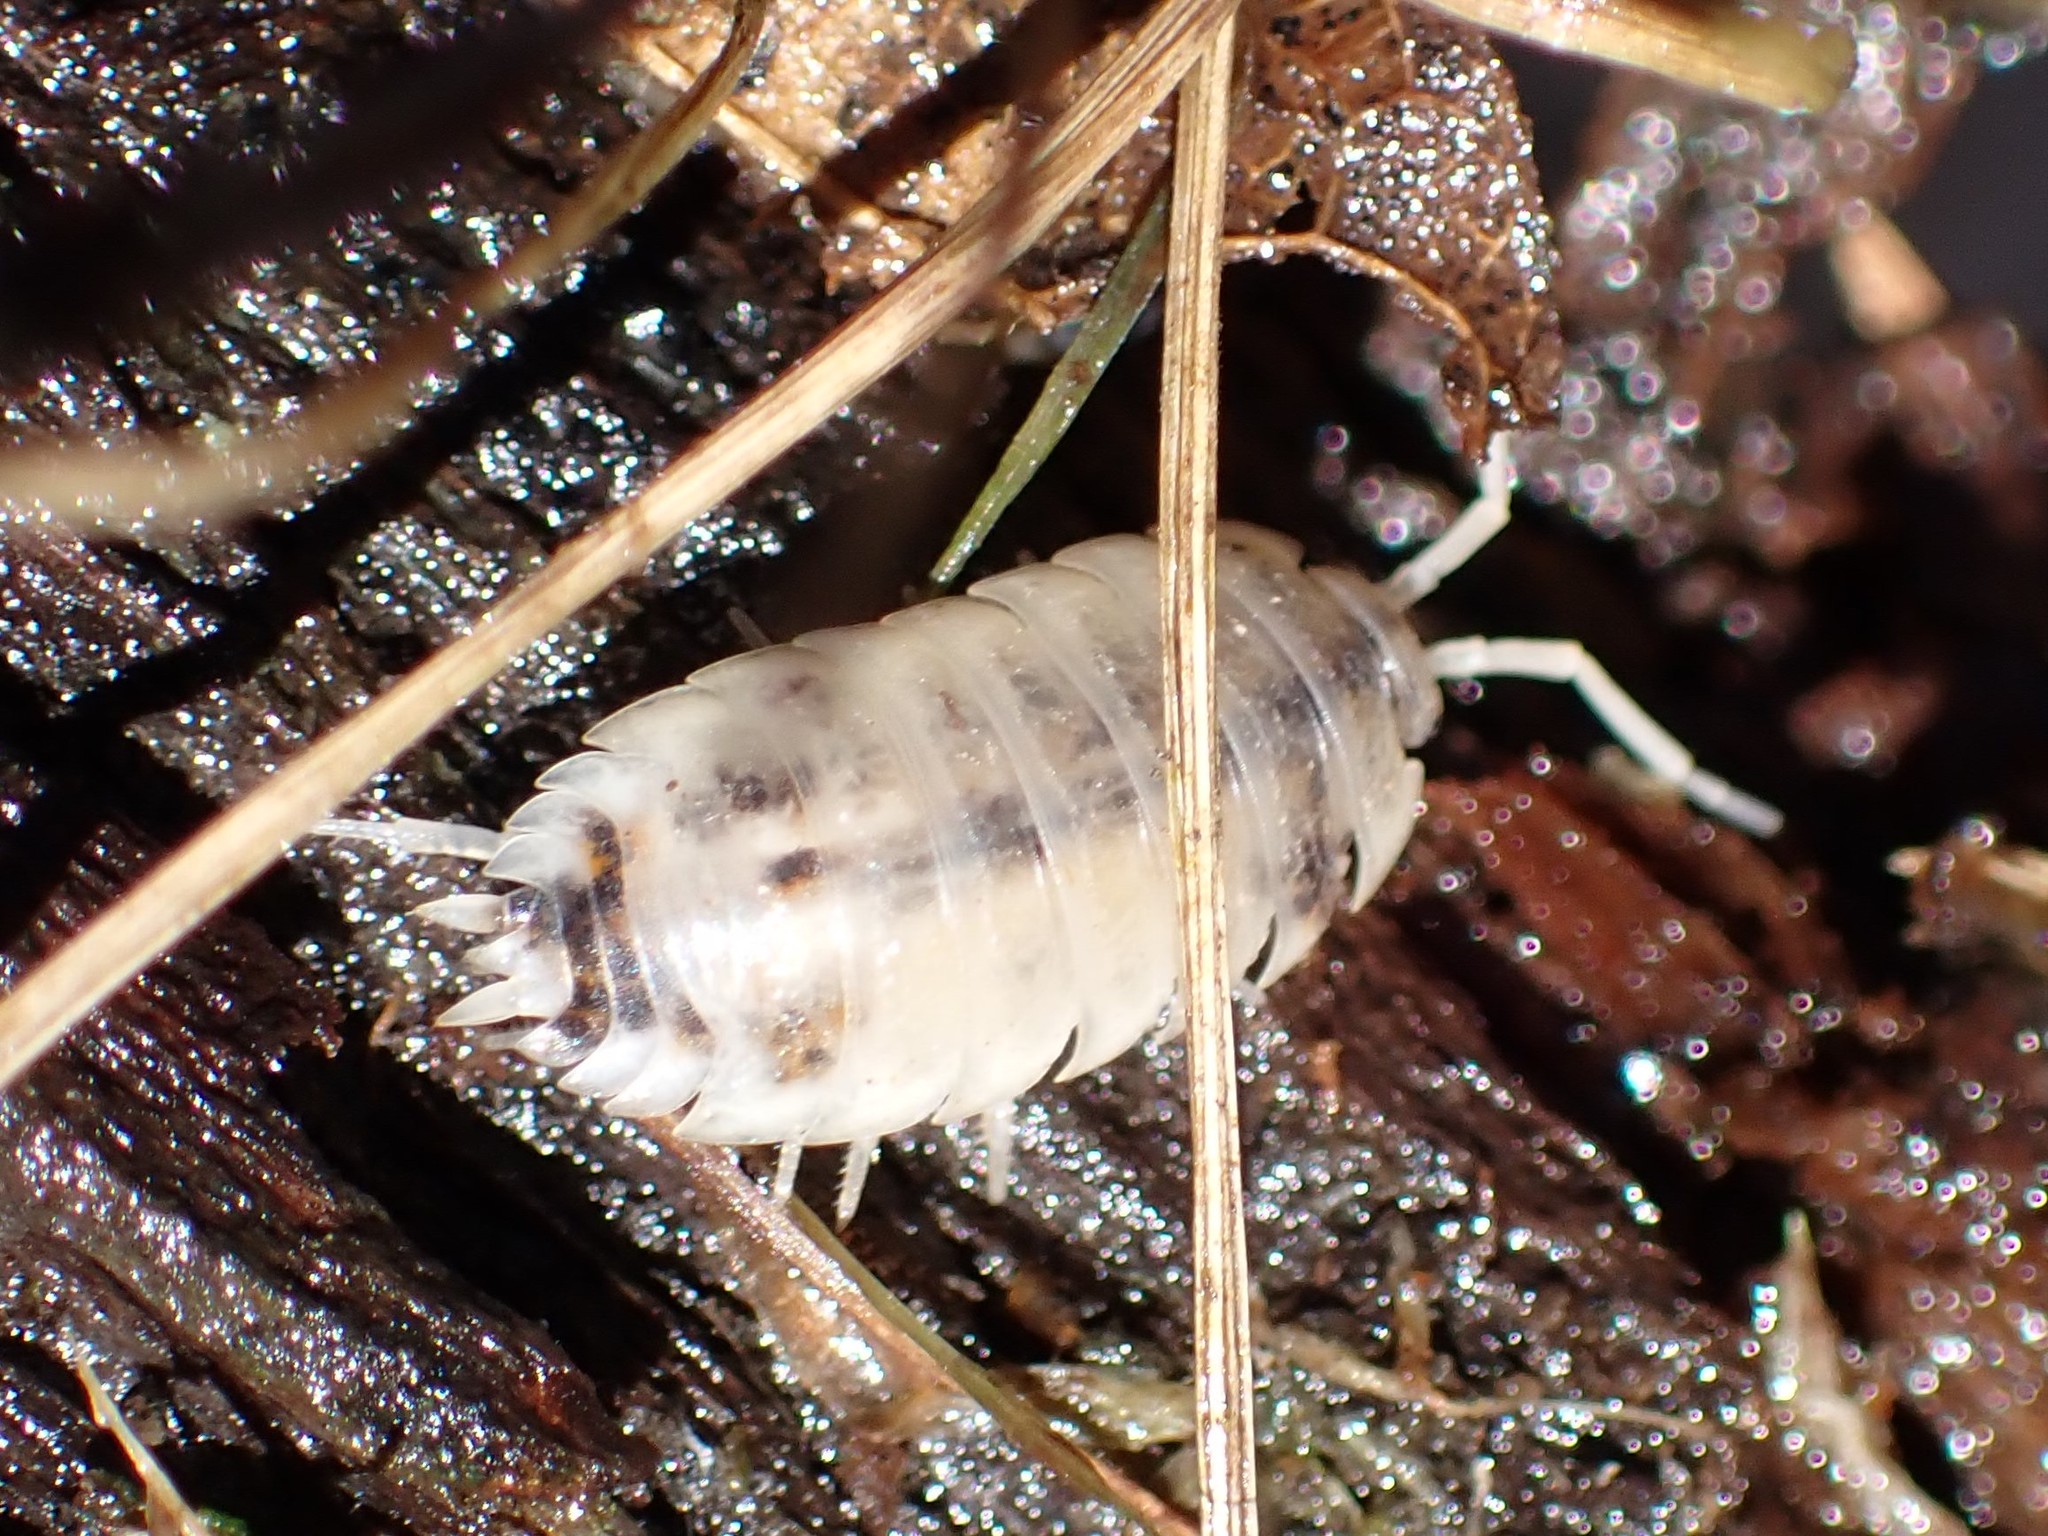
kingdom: Animalia
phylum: Arthropoda
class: Malacostraca
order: Isopoda
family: Trachelipodidae
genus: Trachelipus
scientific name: Trachelipus rathkii
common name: Isopod
